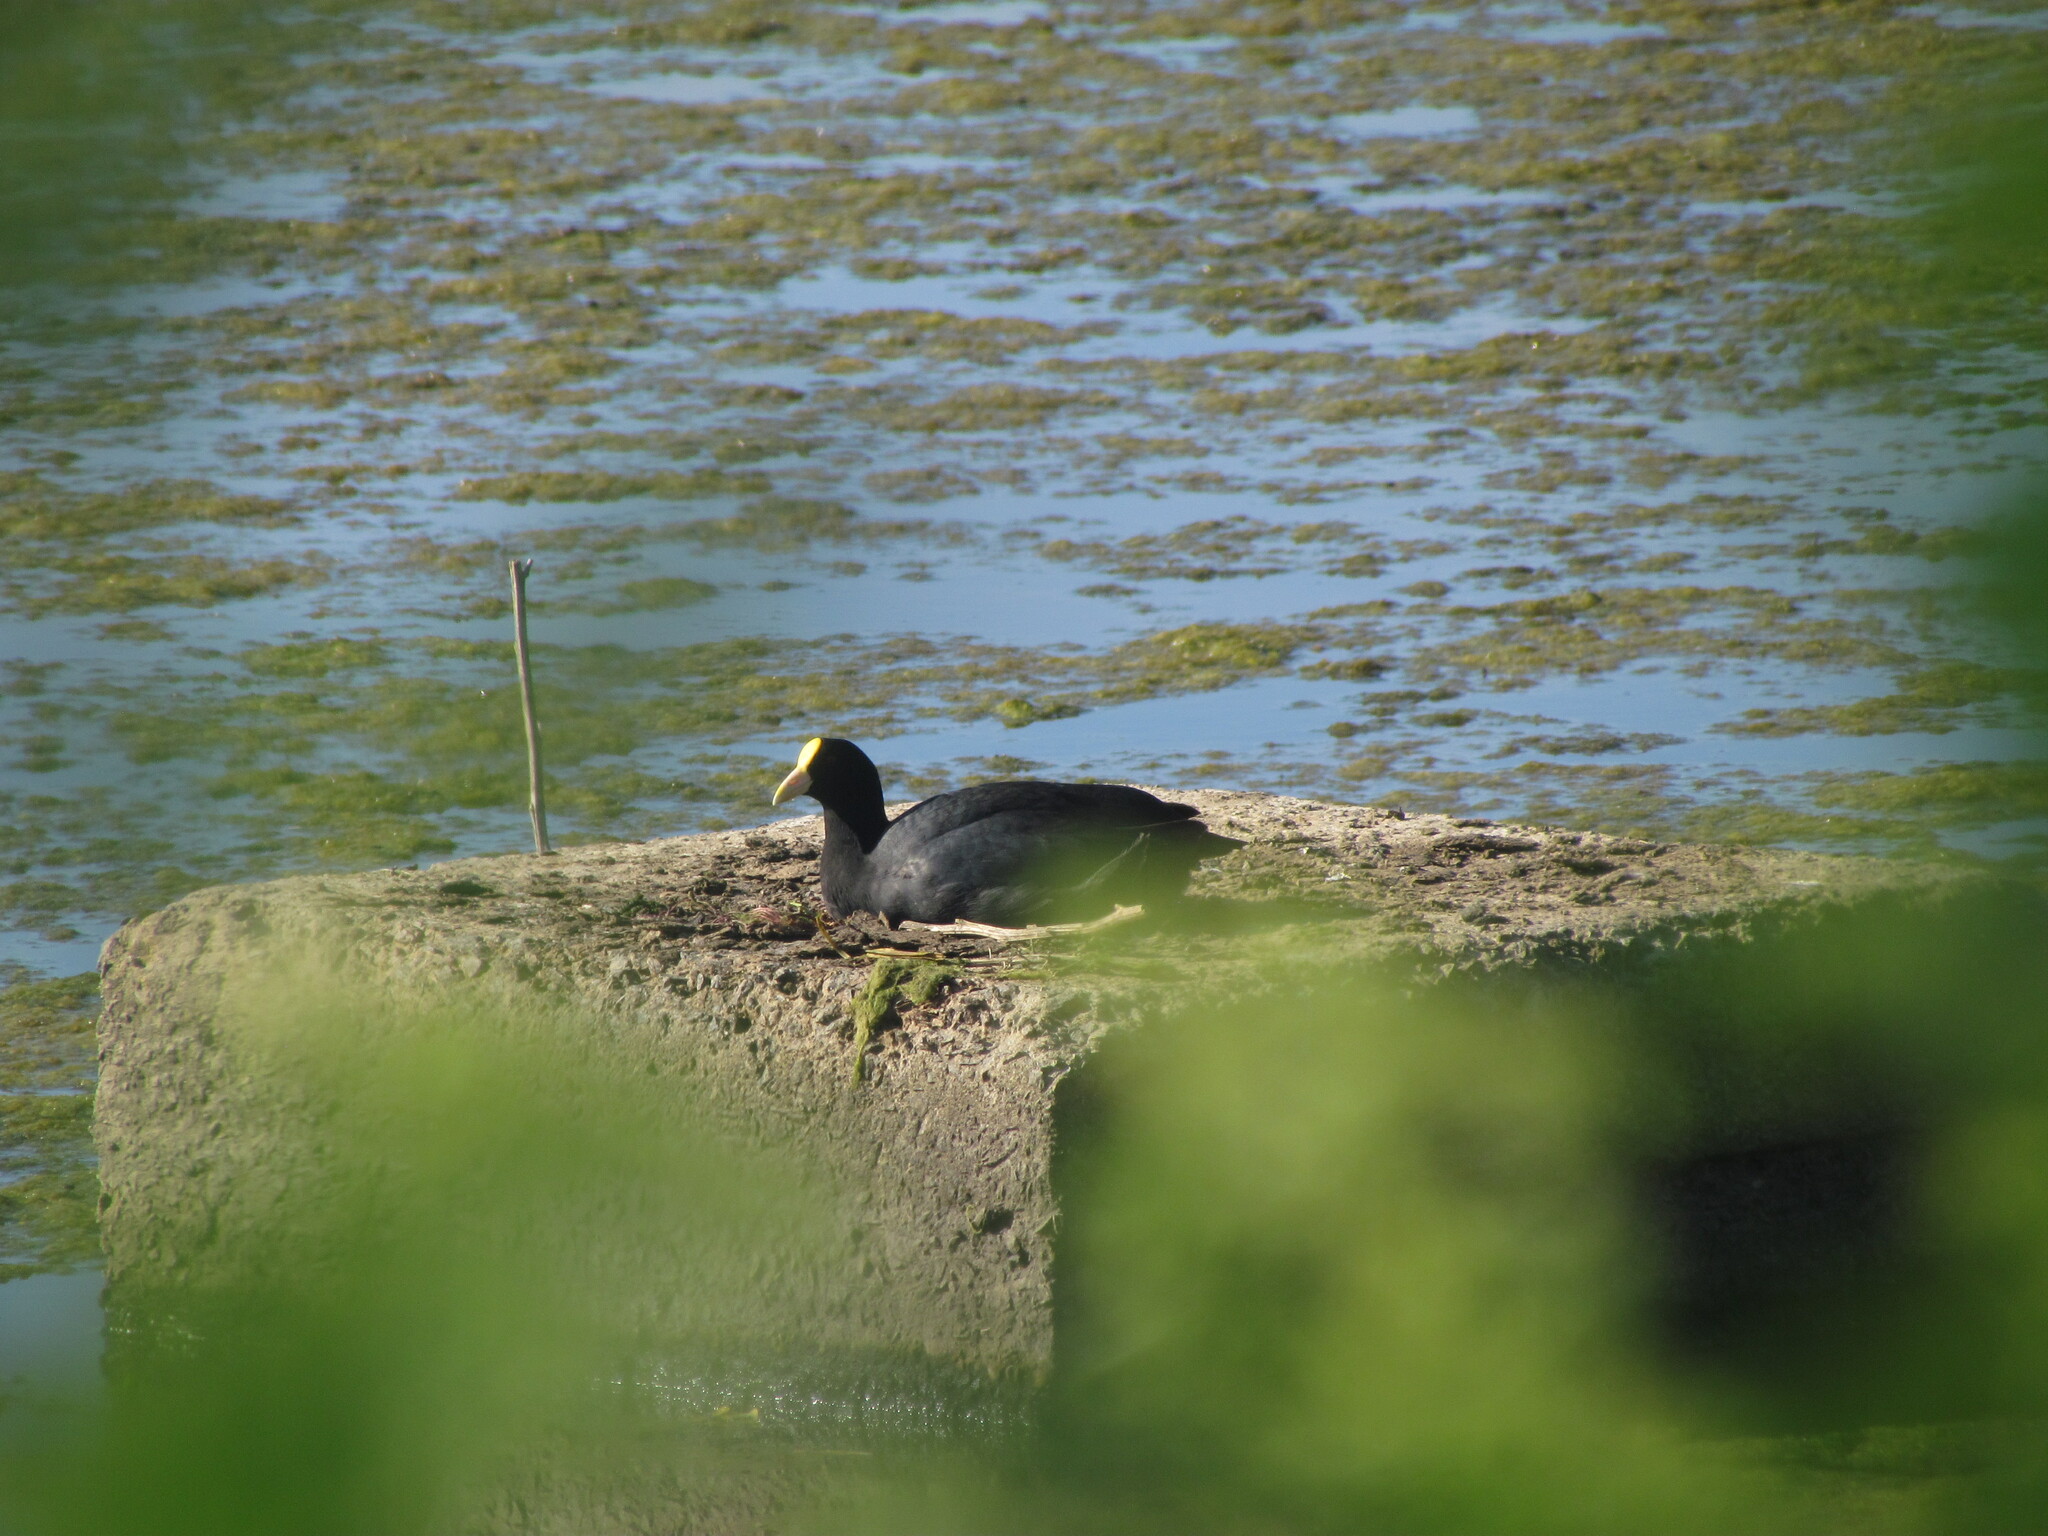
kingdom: Animalia
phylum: Chordata
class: Aves
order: Gruiformes
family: Rallidae
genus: Fulica
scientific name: Fulica leucoptera
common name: White-winged coot
